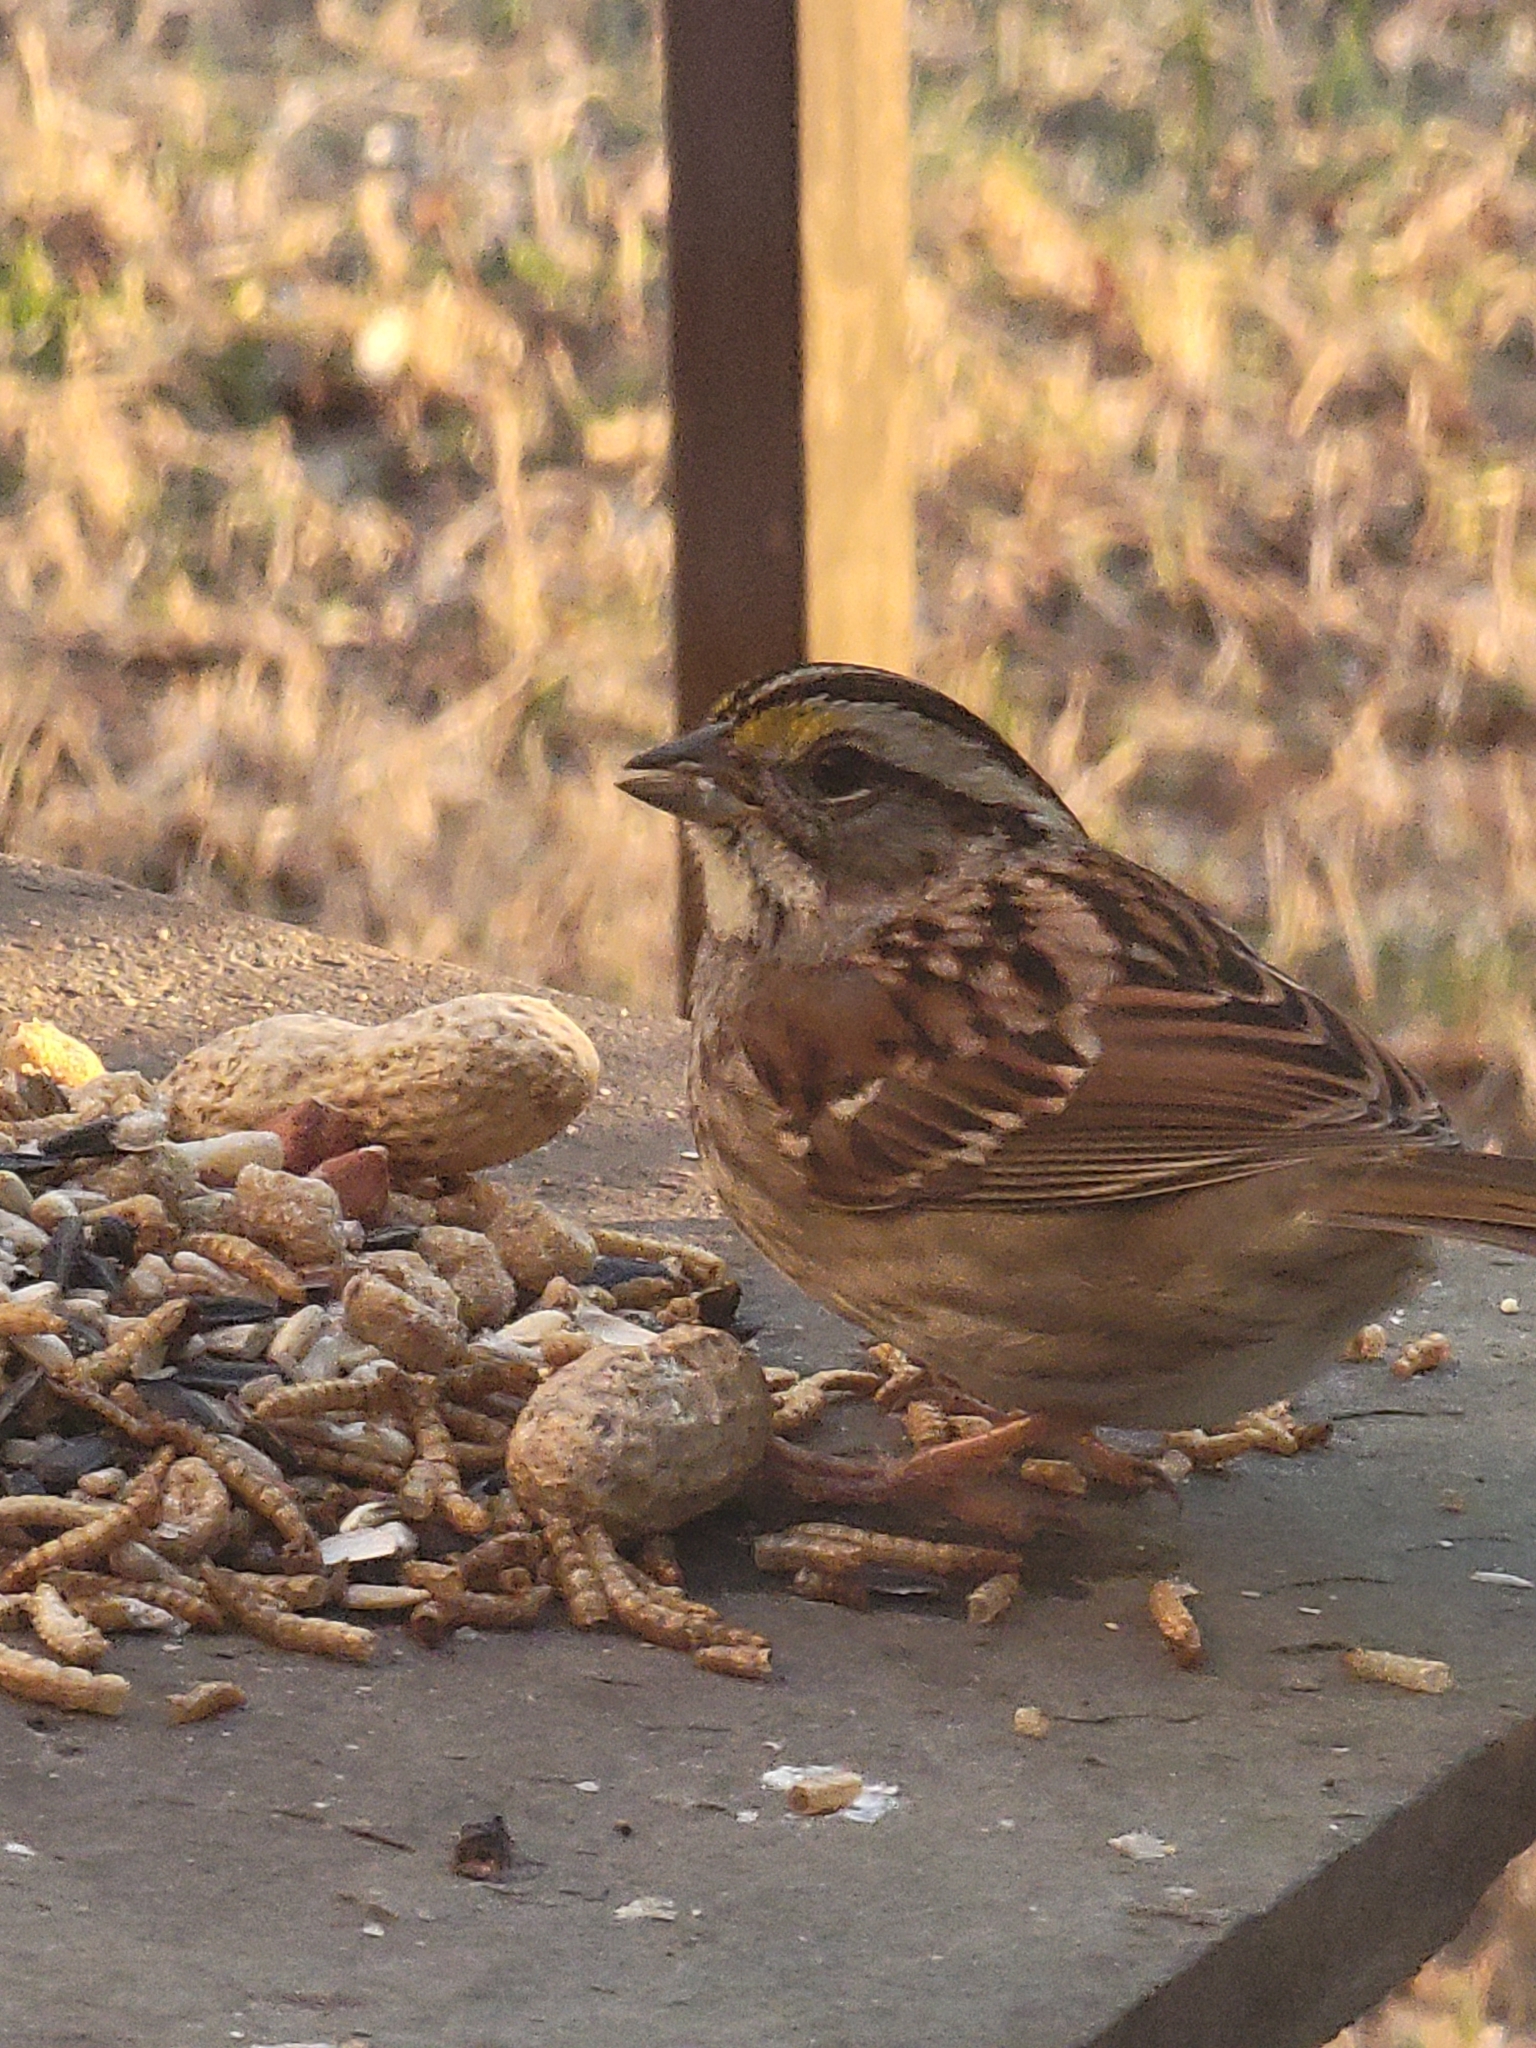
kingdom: Animalia
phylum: Chordata
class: Aves
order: Passeriformes
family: Passerellidae
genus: Zonotrichia
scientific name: Zonotrichia albicollis
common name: White-throated sparrow
